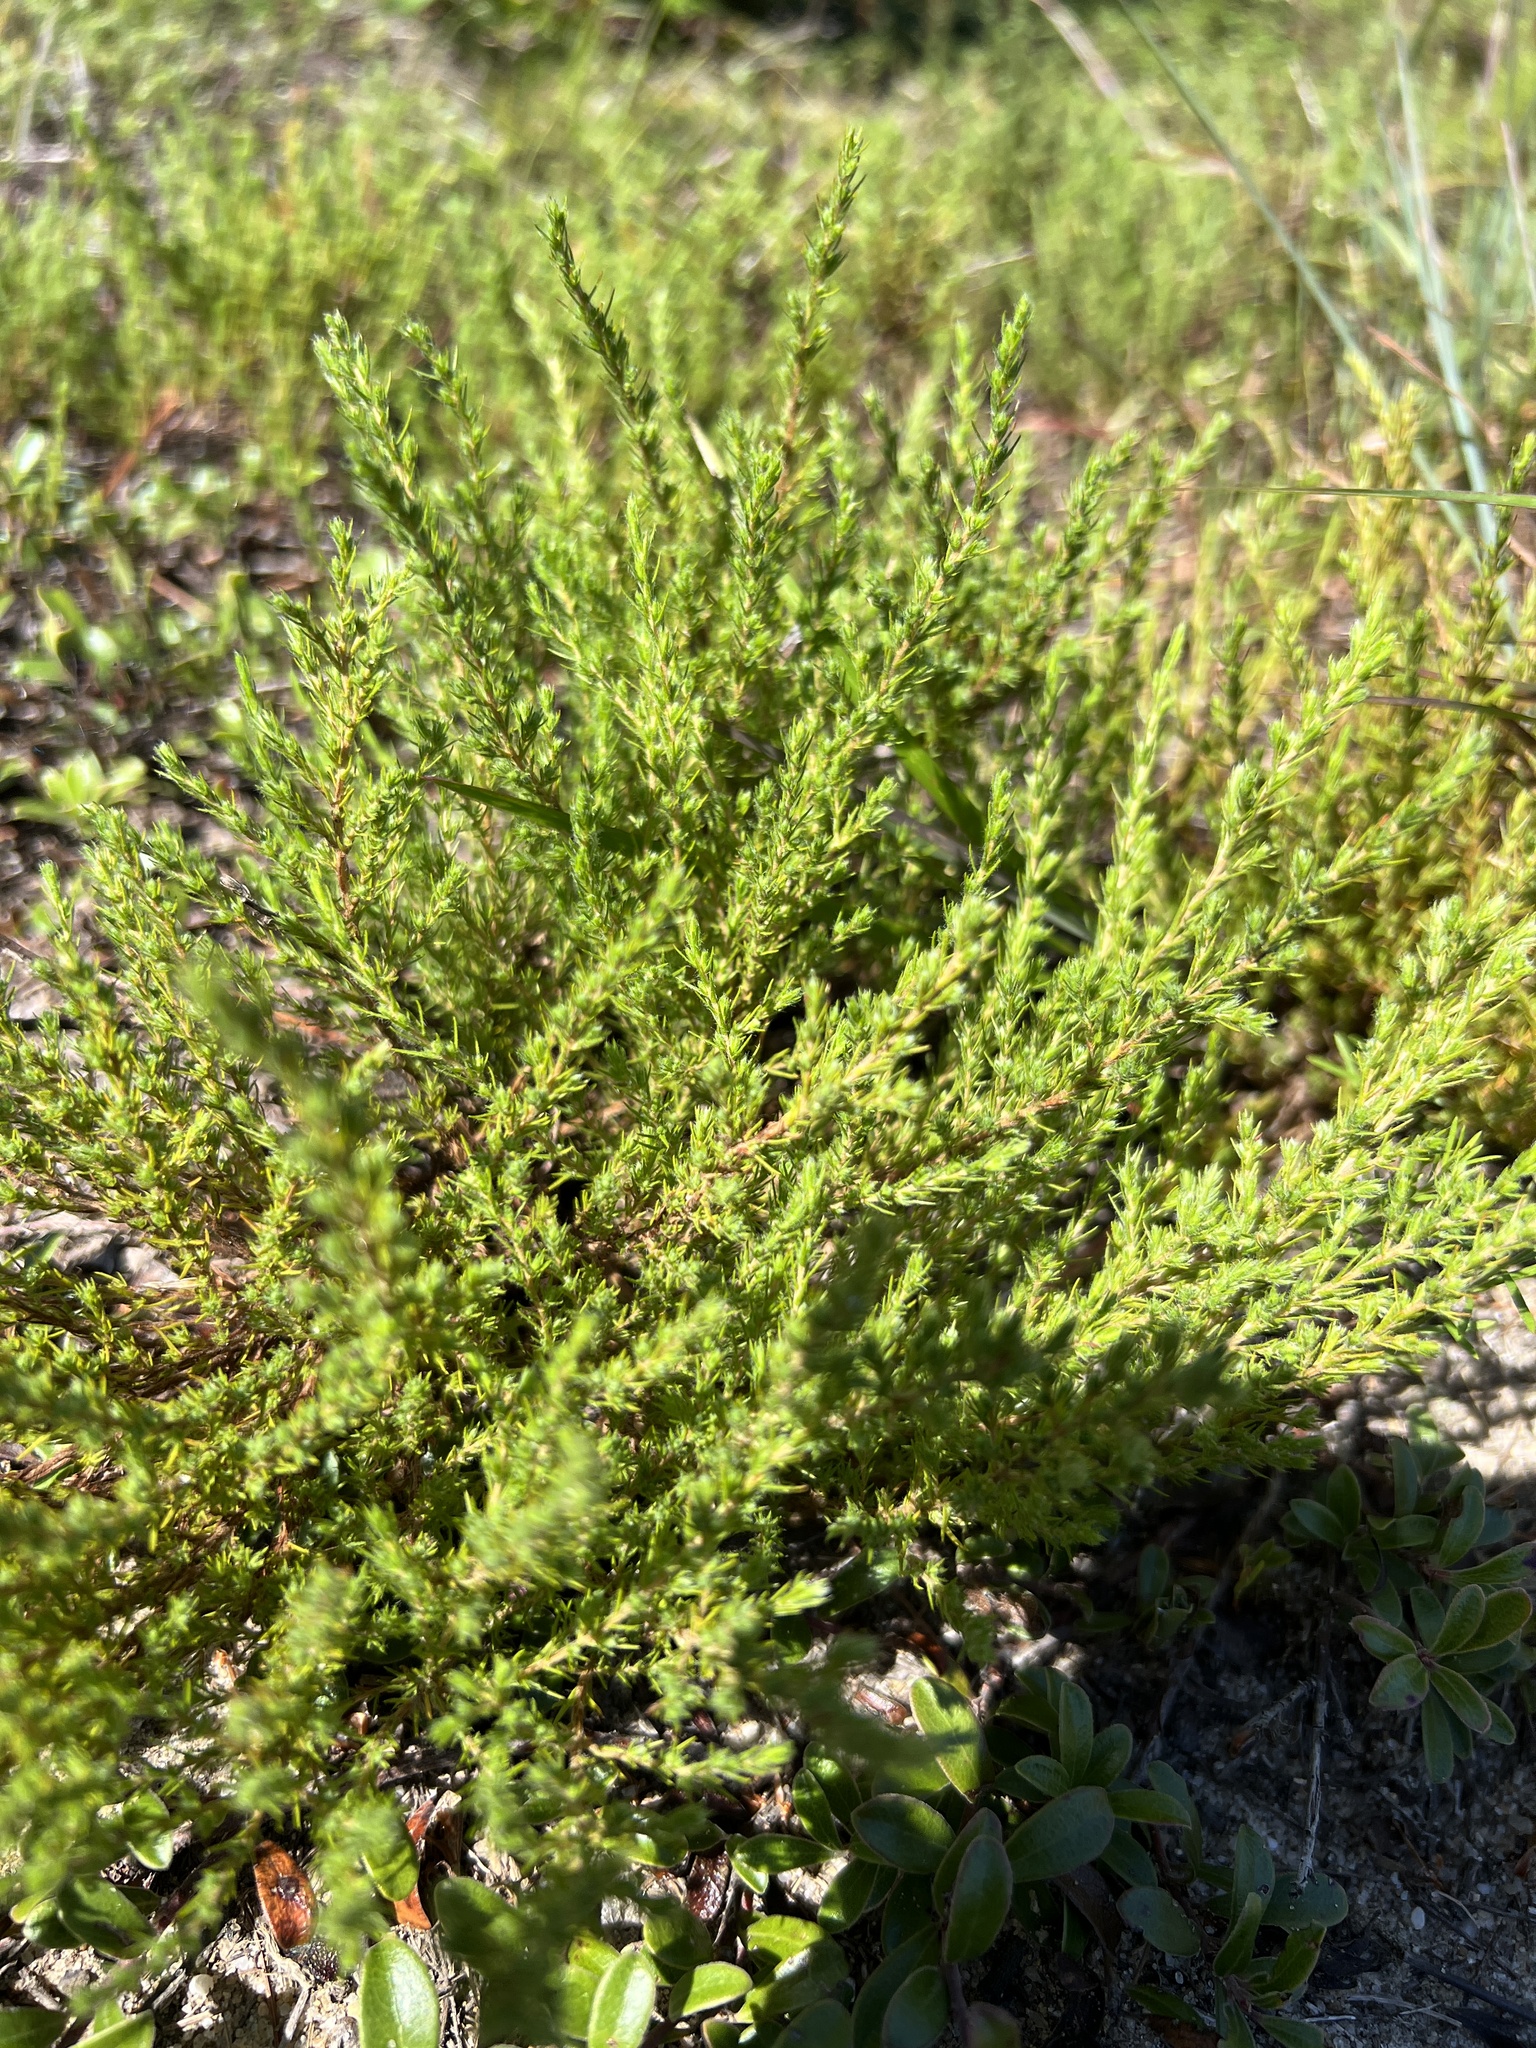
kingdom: Plantae
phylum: Tracheophyta
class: Magnoliopsida
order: Malvales
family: Cistaceae
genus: Hudsonia
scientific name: Hudsonia ericoides
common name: Golden-heather
